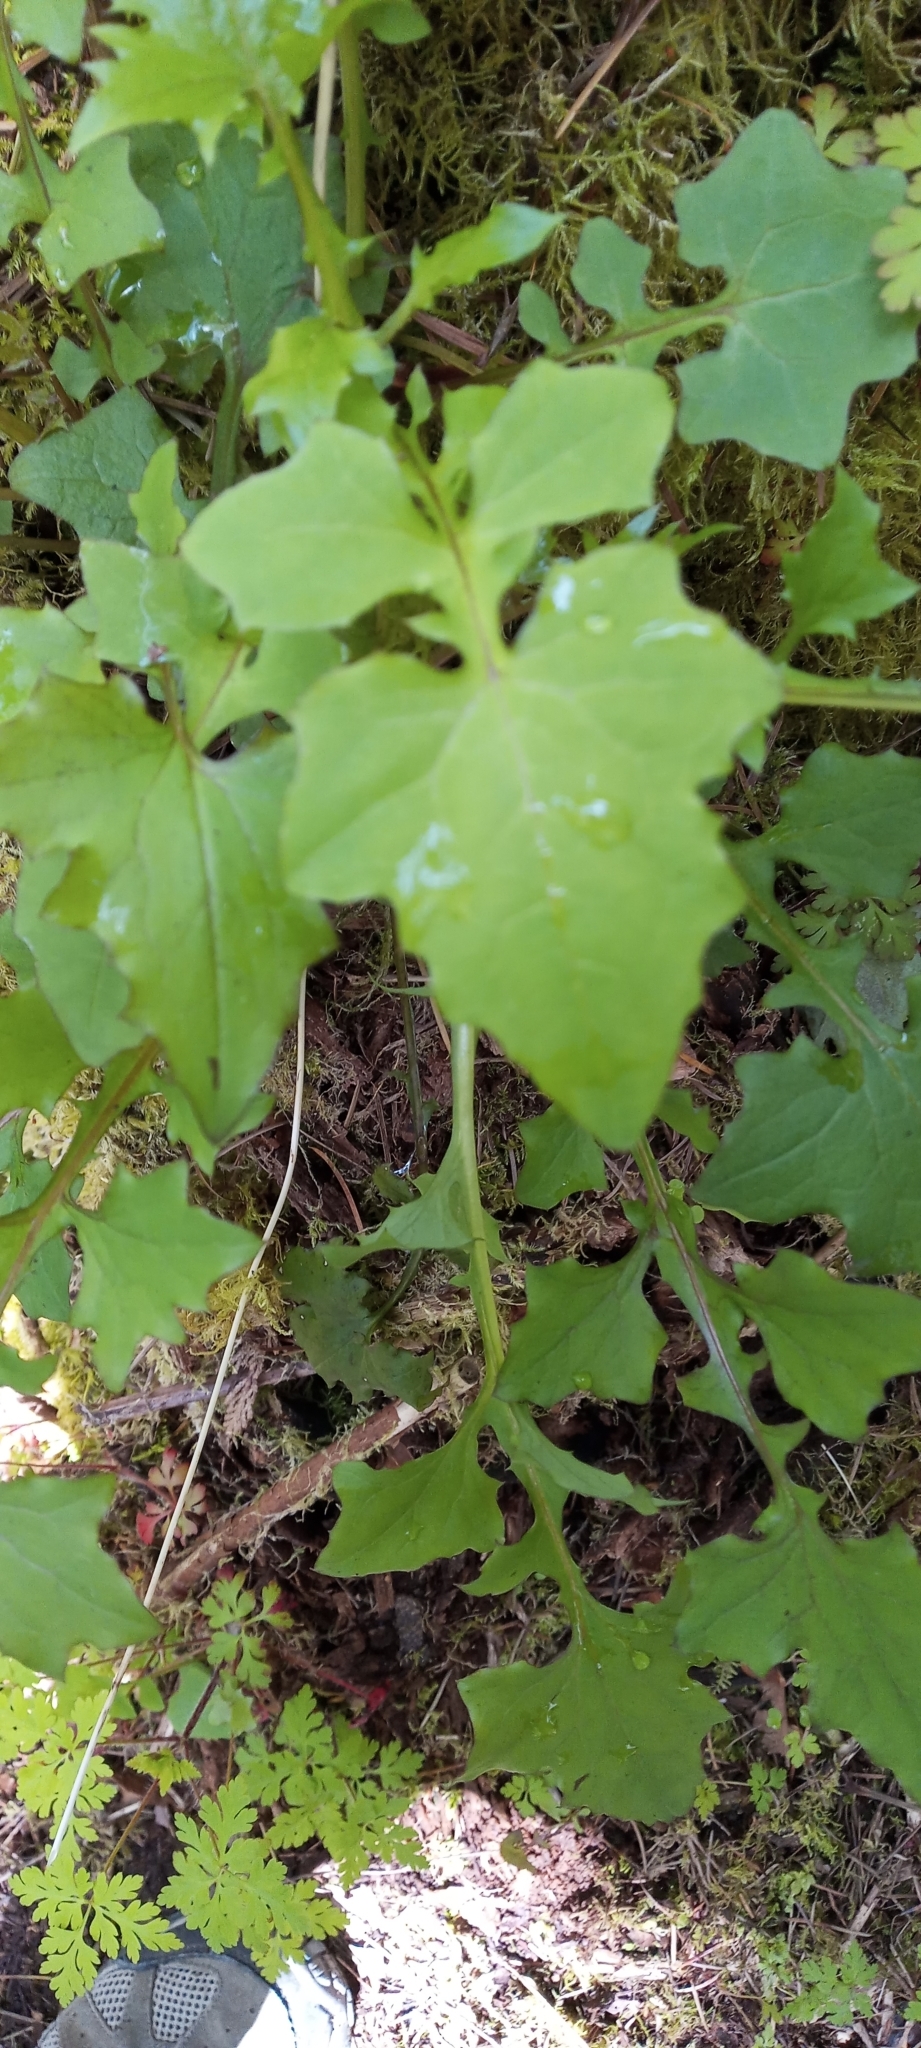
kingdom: Plantae
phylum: Tracheophyta
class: Magnoliopsida
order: Asterales
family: Asteraceae
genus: Mycelis
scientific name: Mycelis muralis
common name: Wall lettuce
